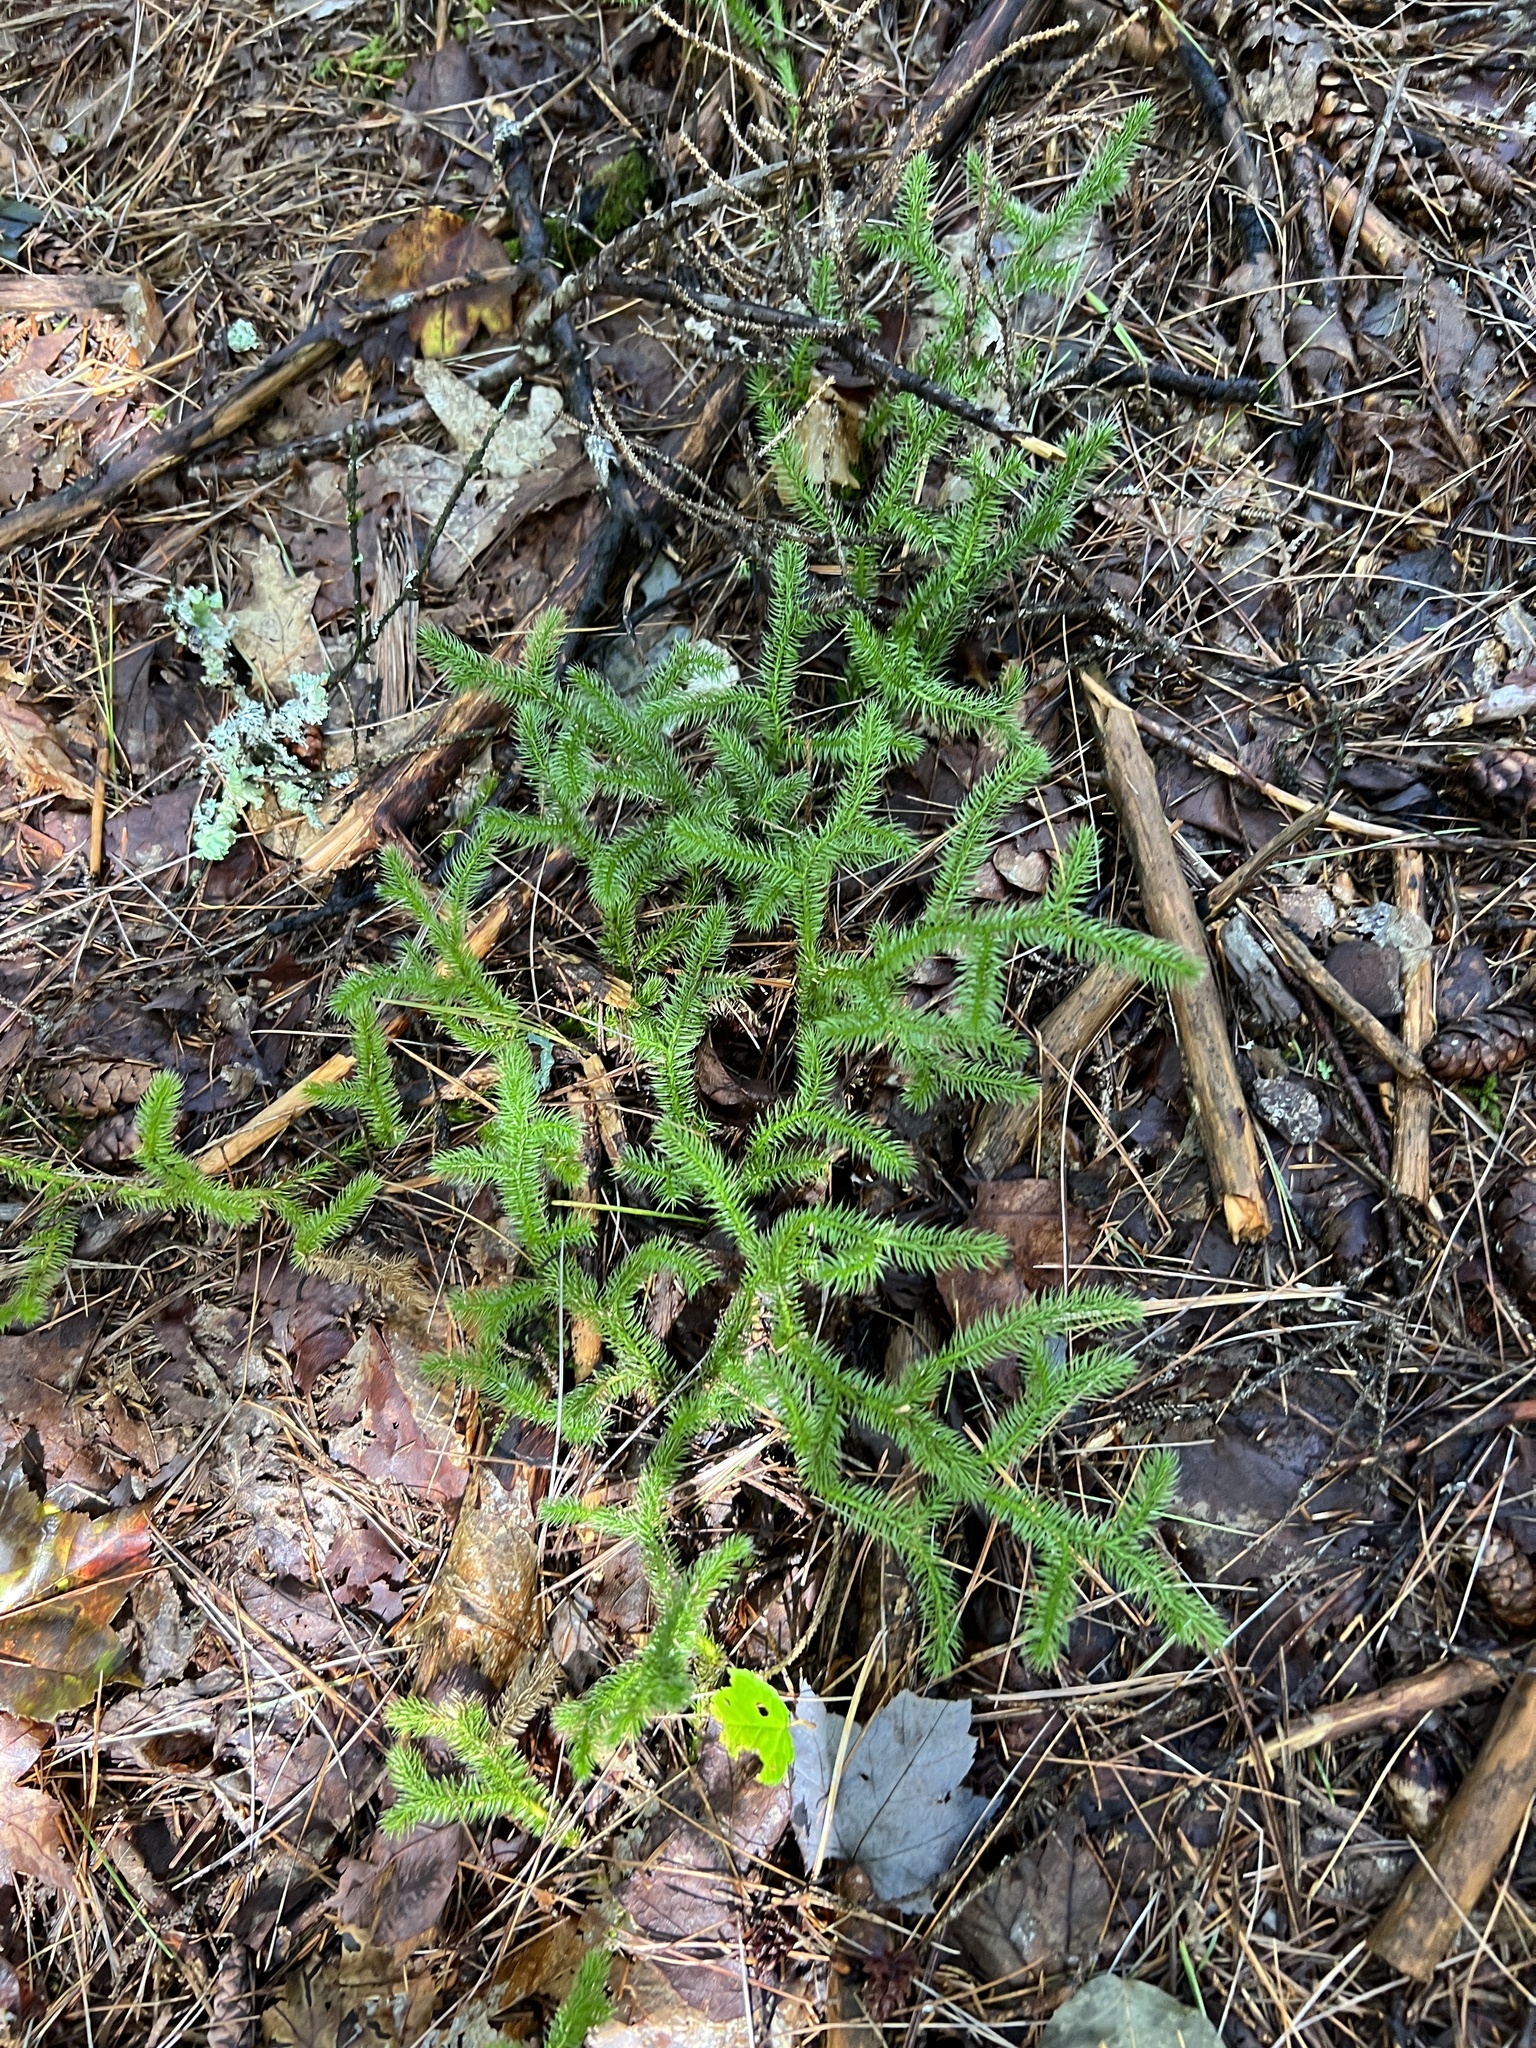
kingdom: Plantae
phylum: Tracheophyta
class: Lycopodiopsida
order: Lycopodiales
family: Lycopodiaceae
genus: Lycopodium
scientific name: Lycopodium clavatum
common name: Stag's-horn clubmoss
